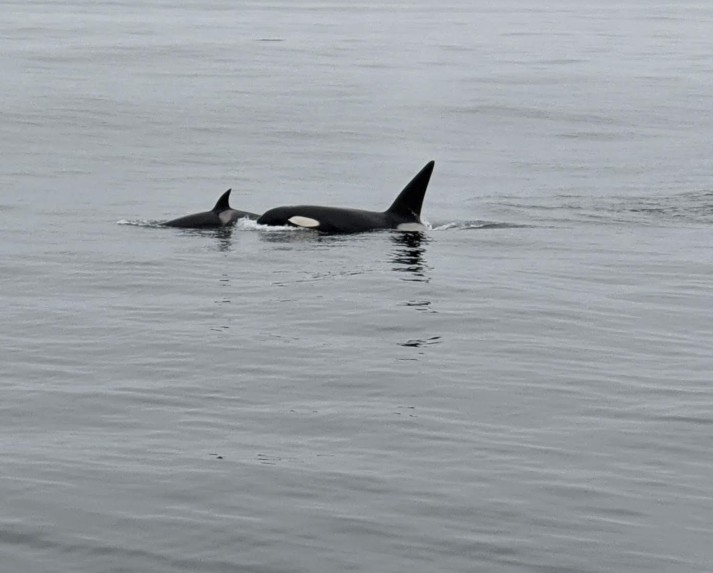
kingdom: Animalia
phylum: Chordata
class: Mammalia
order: Cetacea
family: Delphinidae
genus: Orcinus
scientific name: Orcinus orca
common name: Killer whale
